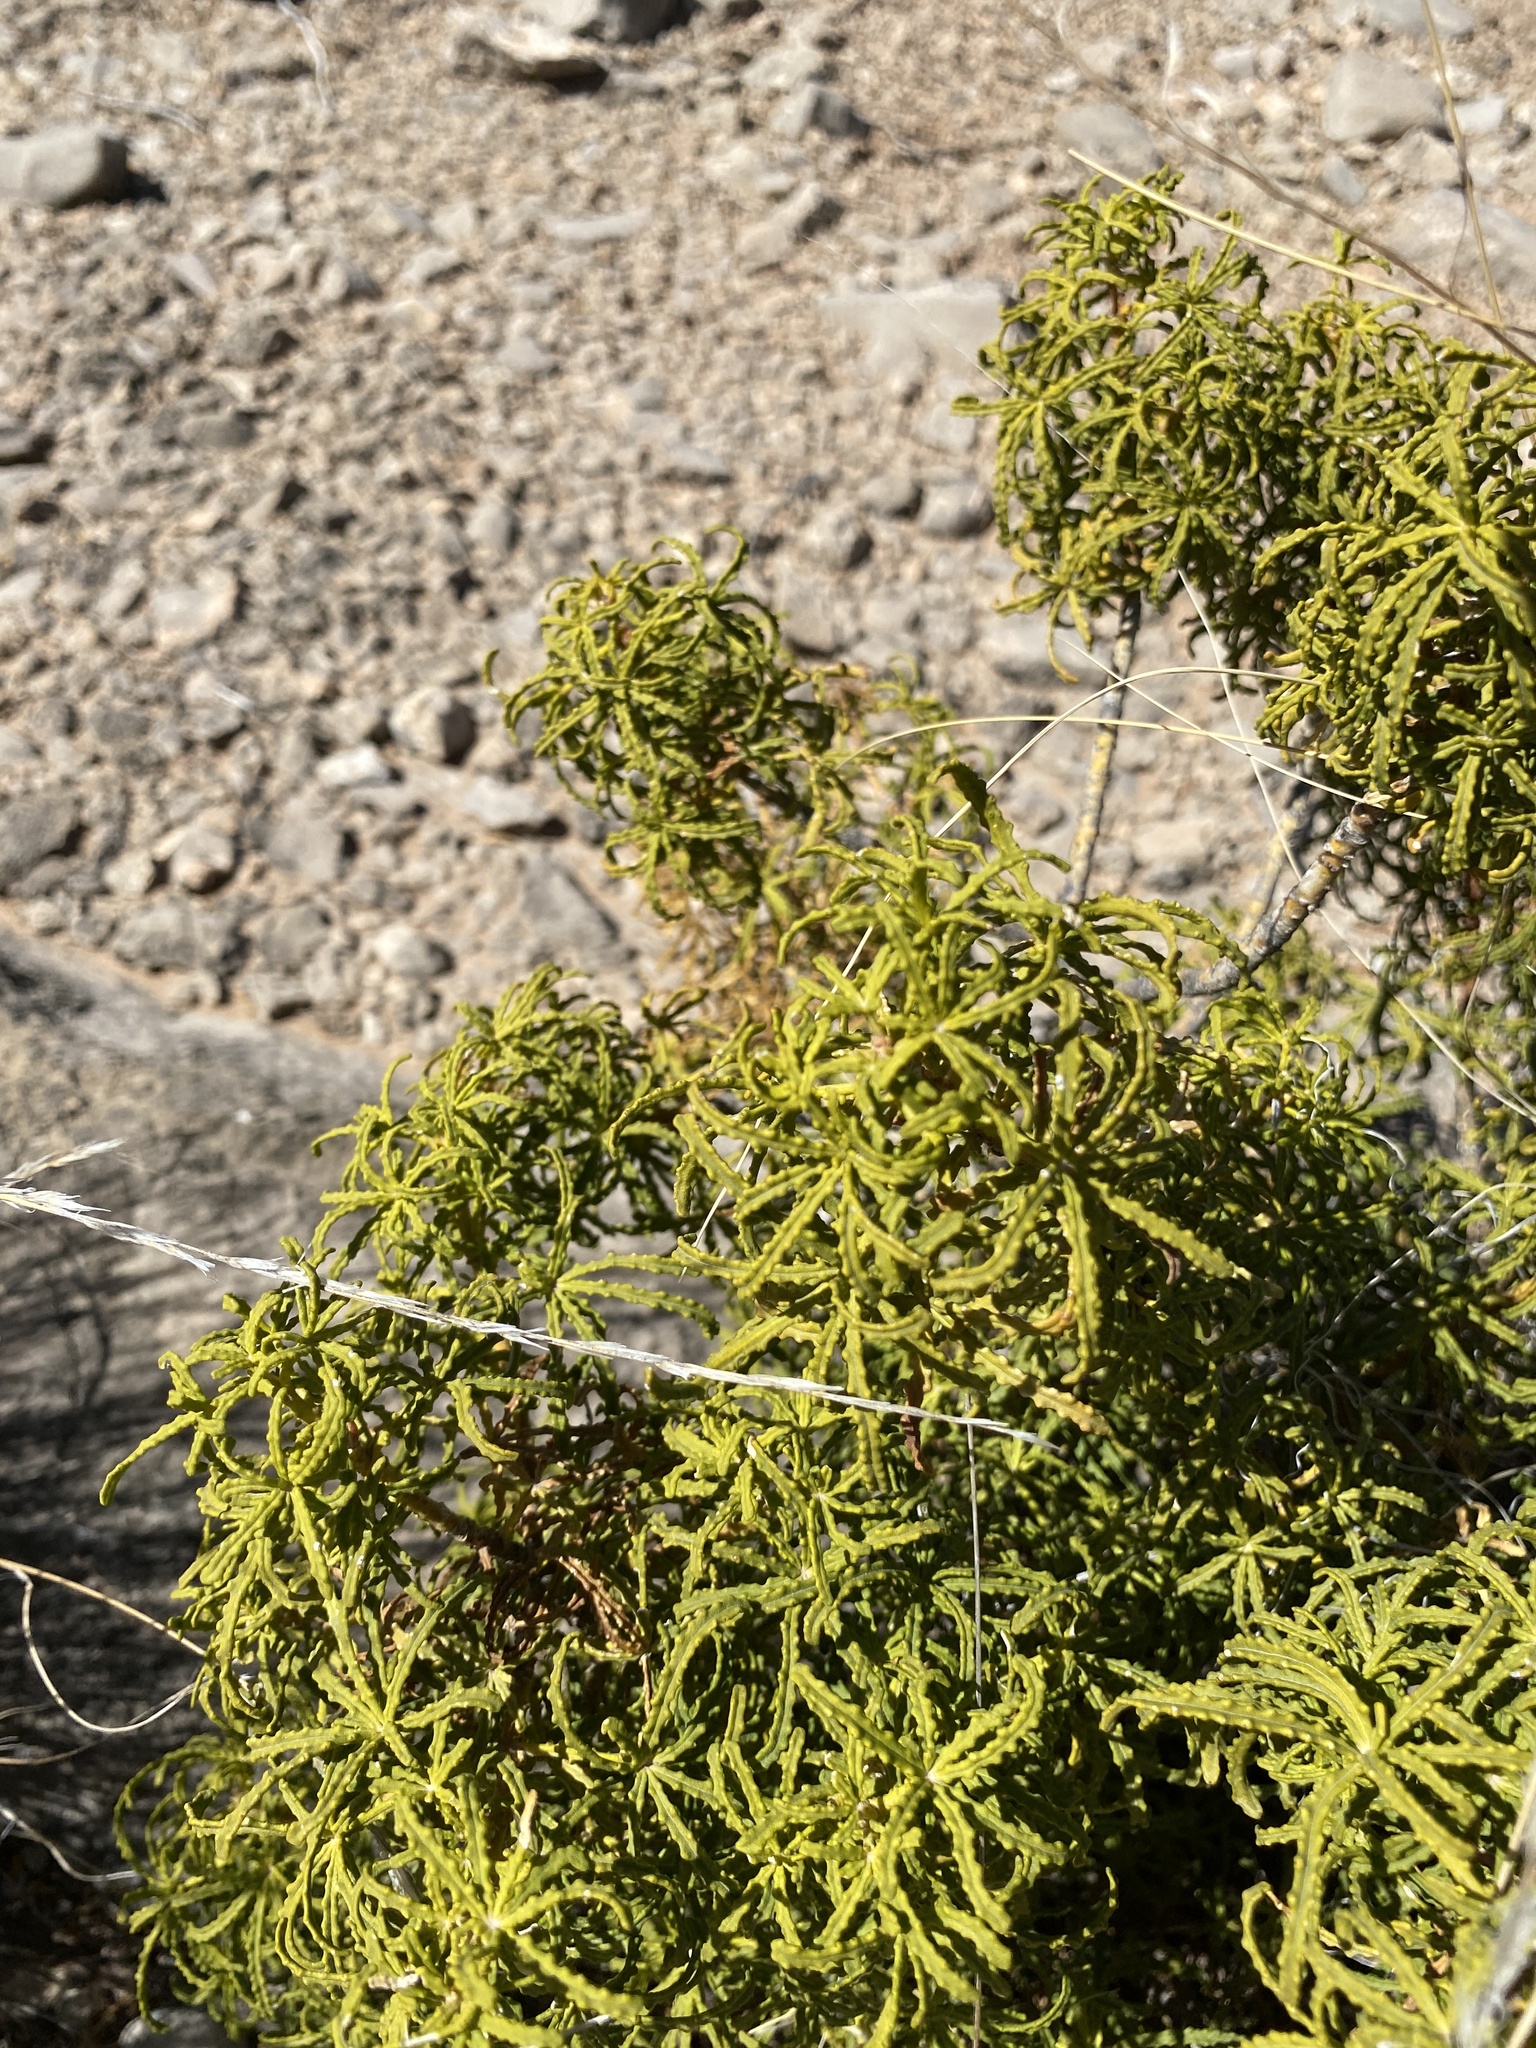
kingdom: Plantae
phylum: Tracheophyta
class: Magnoliopsida
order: Sapindales
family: Rutaceae
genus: Choisya
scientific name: Choisya dumosa
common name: Mexican-orange
